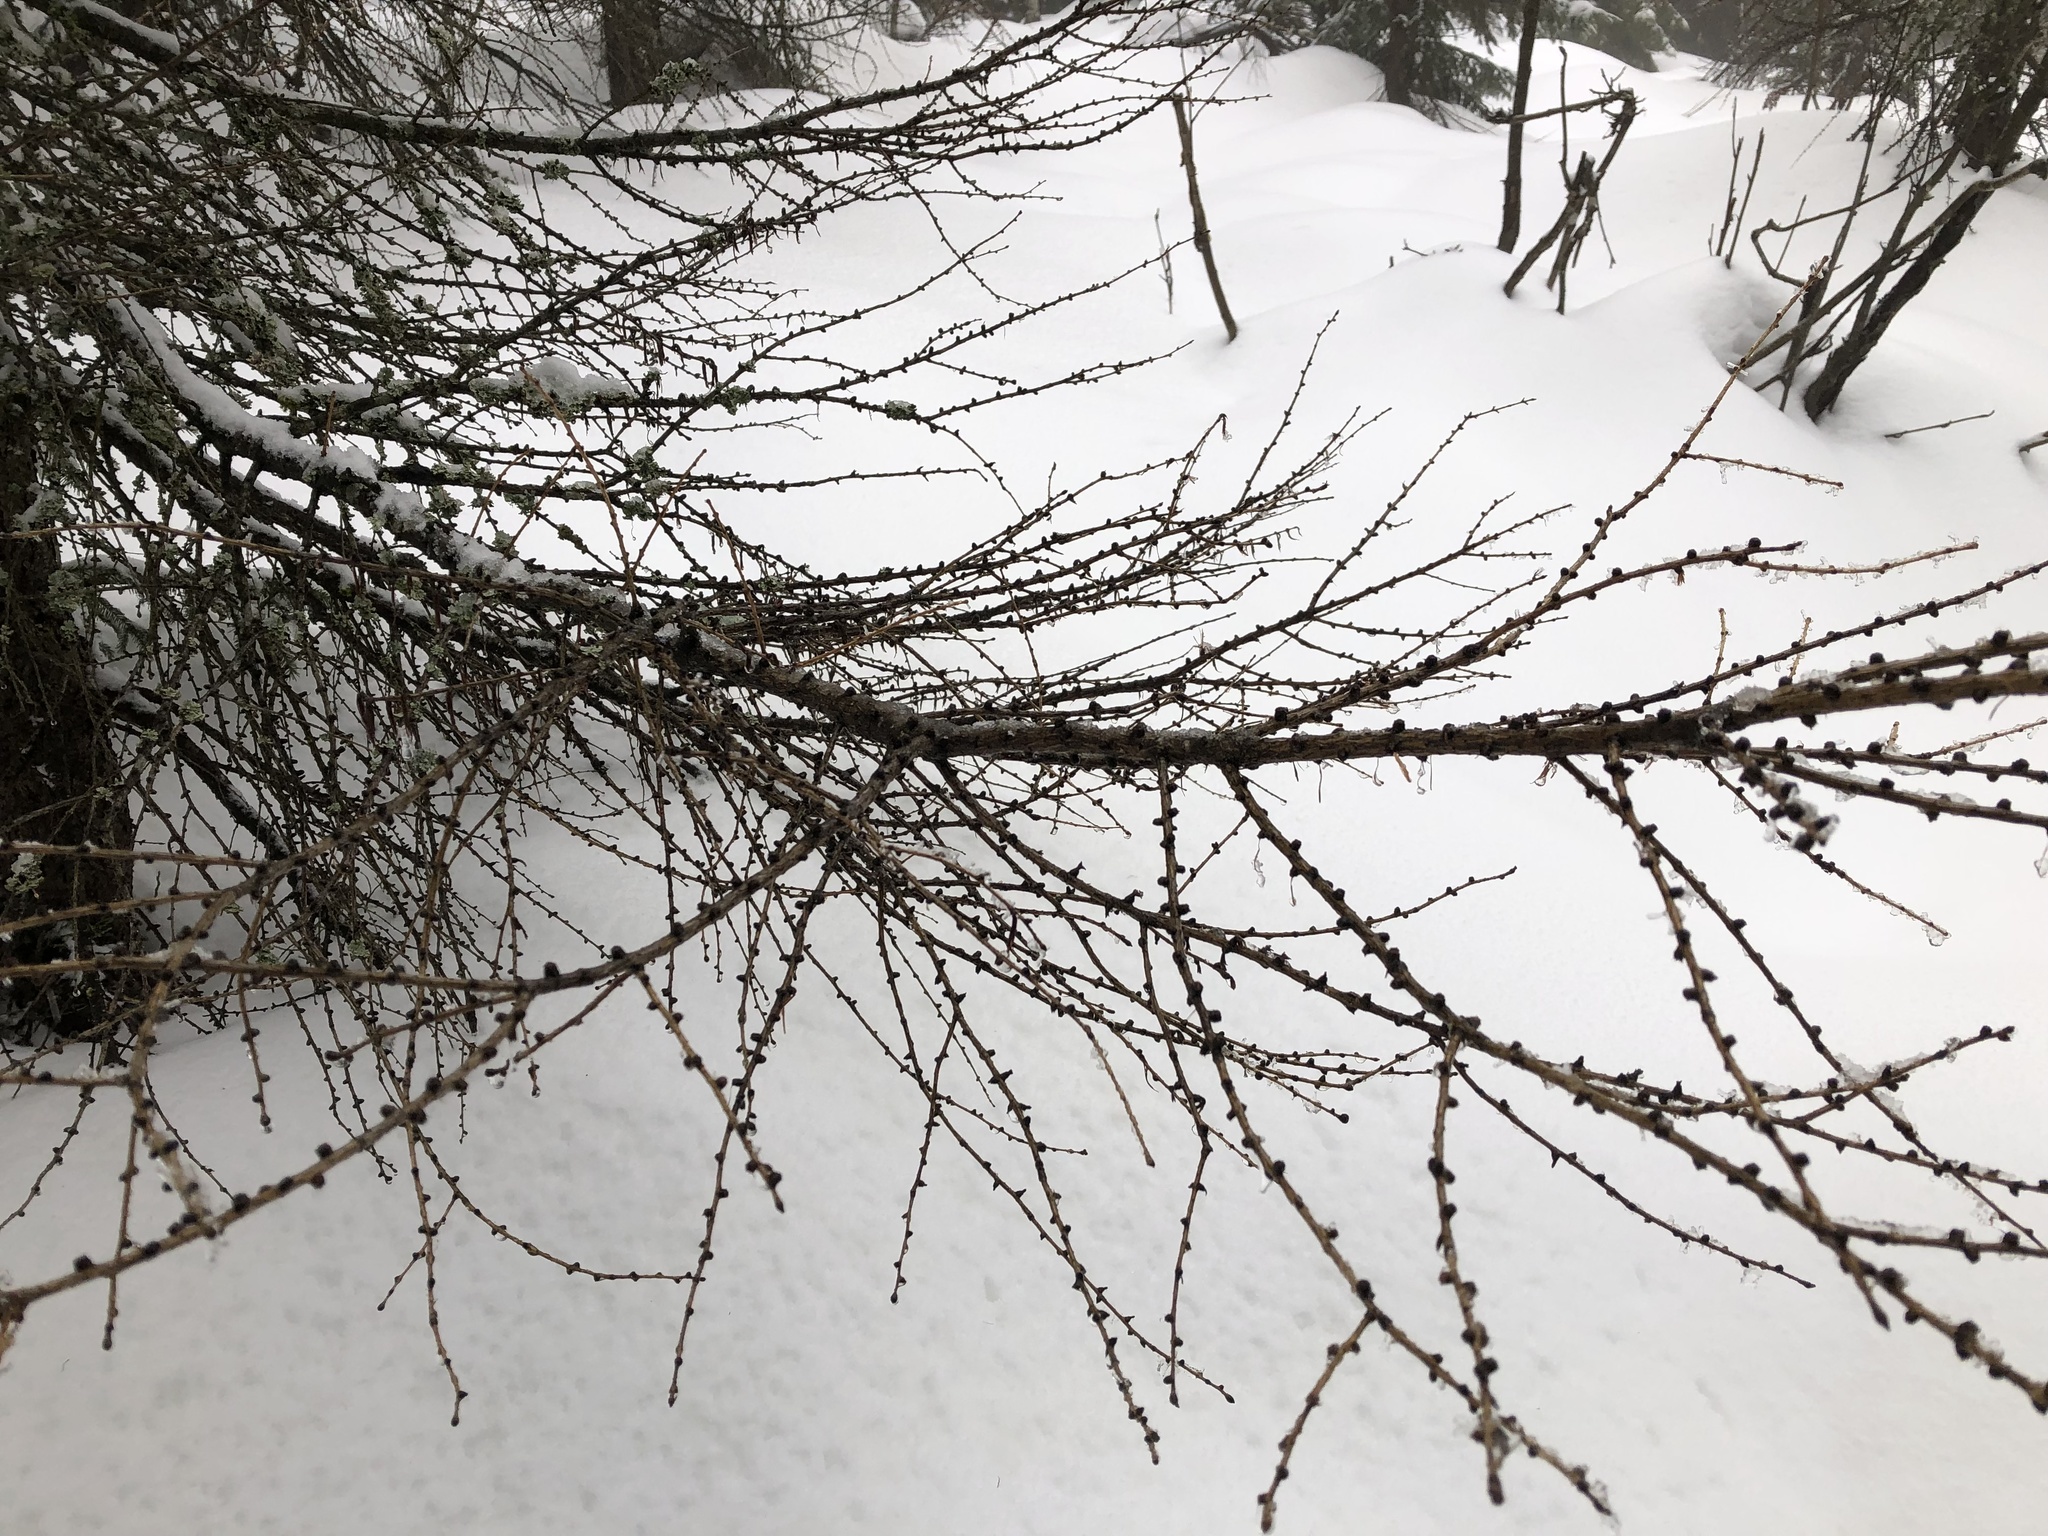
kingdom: Plantae
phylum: Tracheophyta
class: Pinopsida
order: Pinales
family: Pinaceae
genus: Larix
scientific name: Larix decidua
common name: European larch
